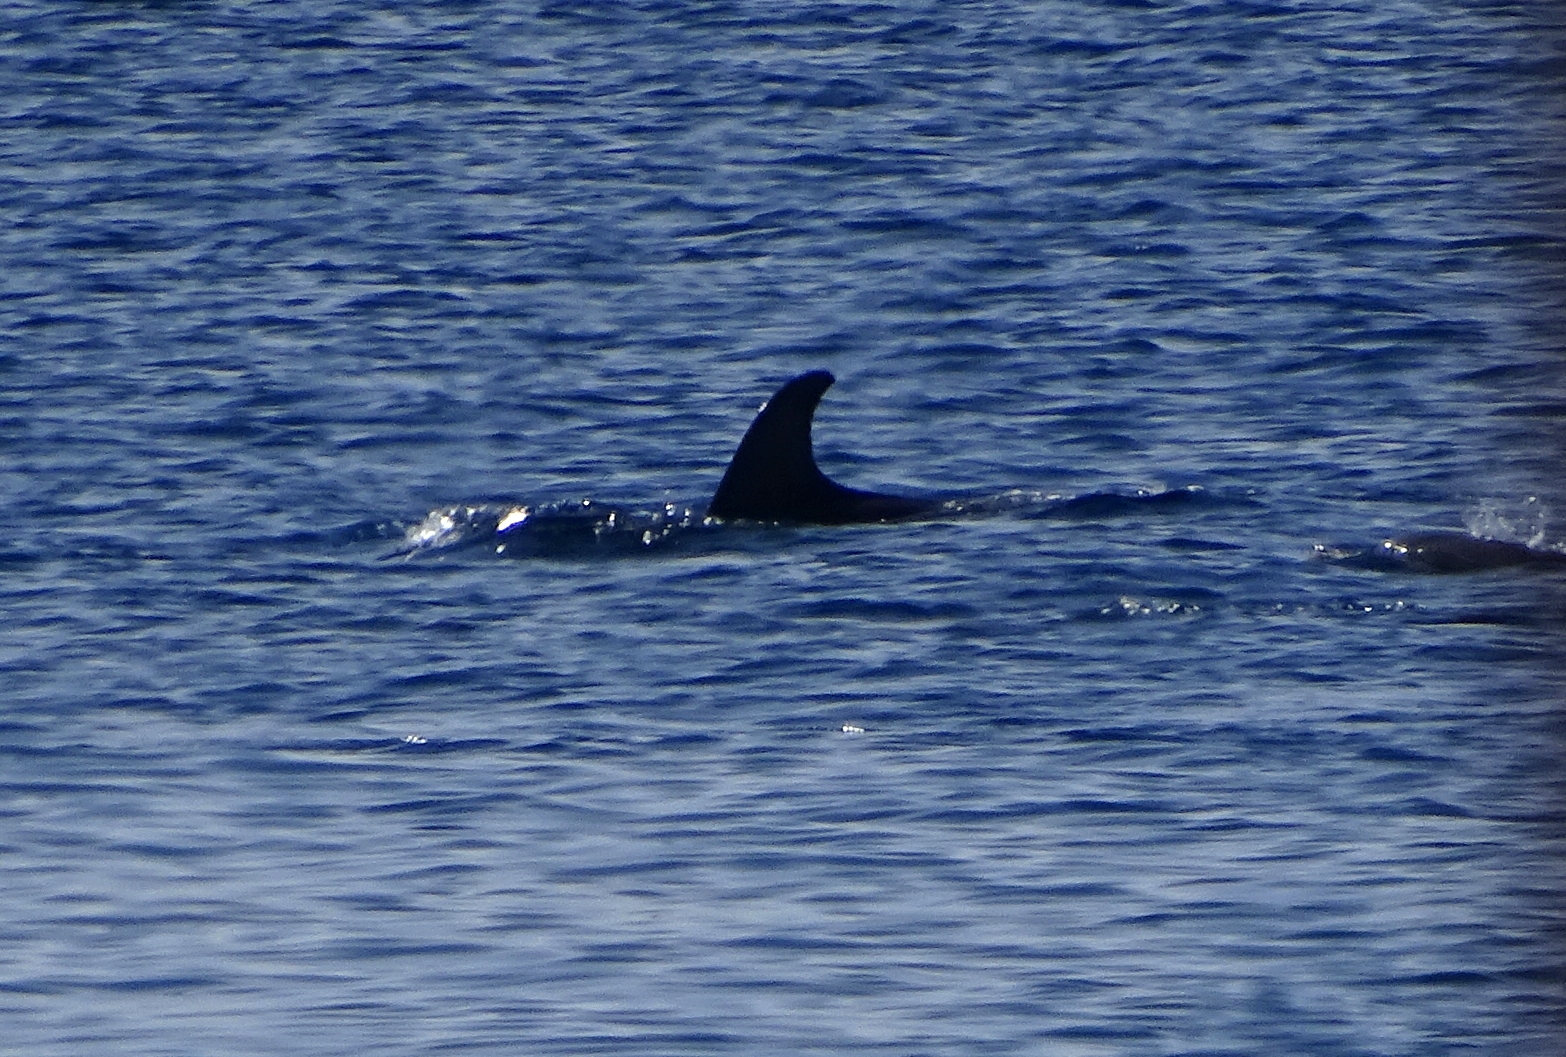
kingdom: Animalia
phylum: Chordata
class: Mammalia
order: Cetacea
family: Delphinidae
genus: Tursiops
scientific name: Tursiops aduncus
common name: Indo-pacific bottlenose dolphin
